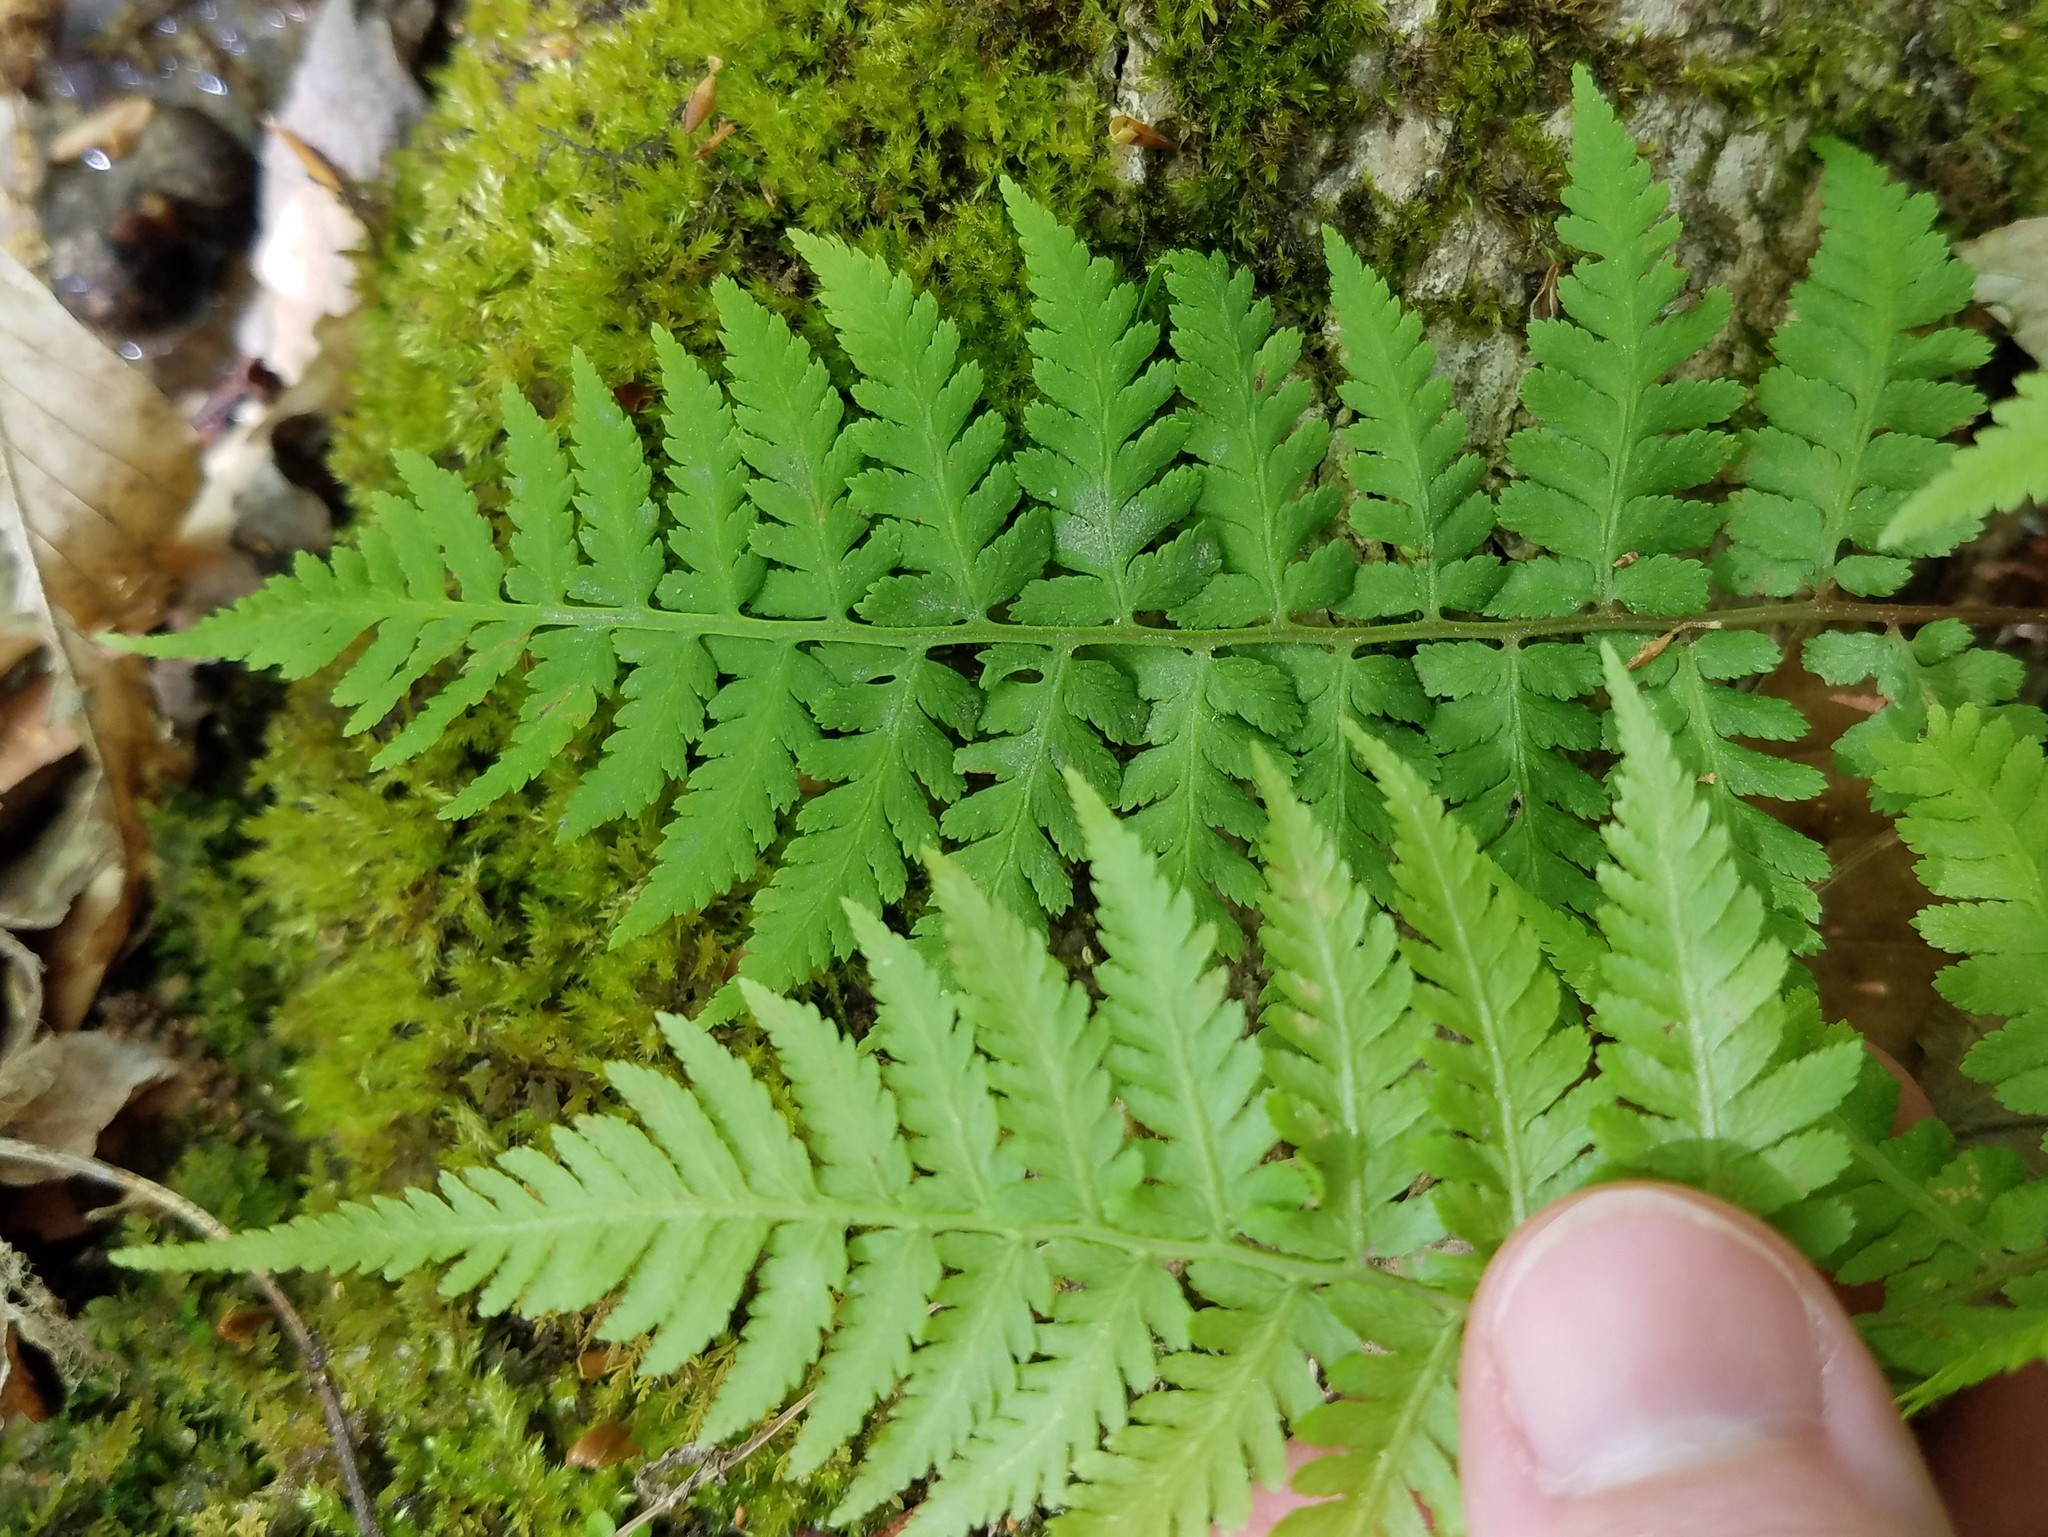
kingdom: Plantae
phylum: Tracheophyta
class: Polypodiopsida
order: Polypodiales
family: Athyriaceae
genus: Athyrium
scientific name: Athyrium asplenioides
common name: Southern lady fern
